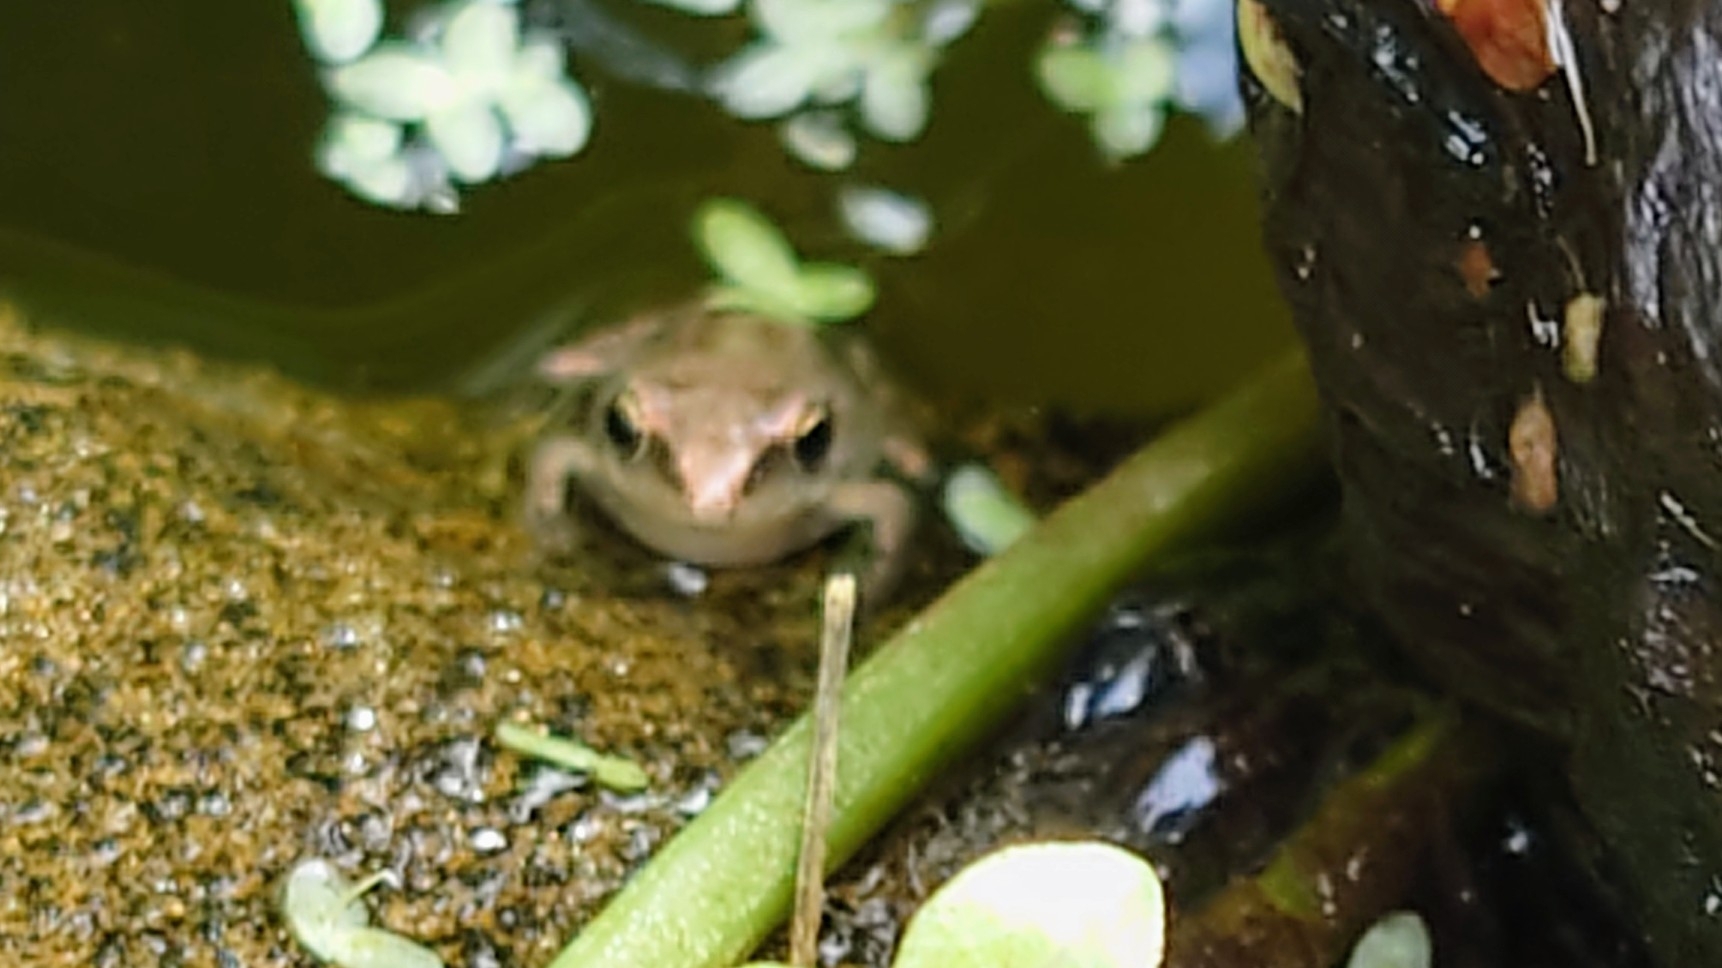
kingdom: Animalia
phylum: Chordata
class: Amphibia
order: Anura
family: Ranidae
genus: Rana
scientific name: Rana temporaria
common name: Common frog
